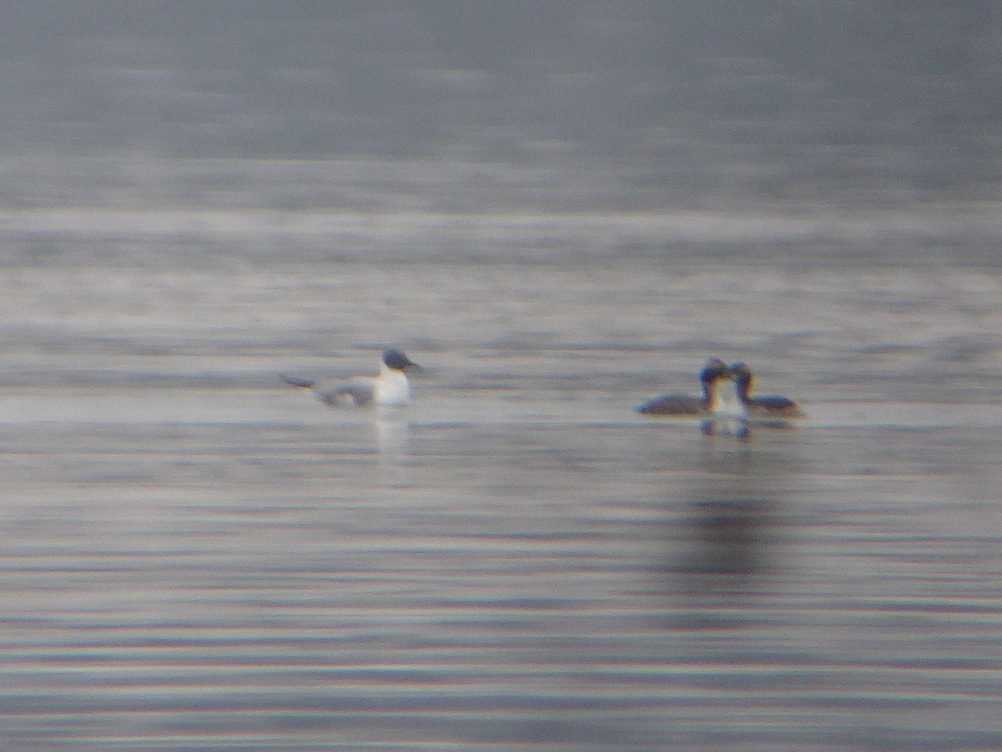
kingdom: Animalia
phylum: Chordata
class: Aves
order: Charadriiformes
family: Laridae
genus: Chroicocephalus
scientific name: Chroicocephalus philadelphia
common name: Bonaparte's gull
